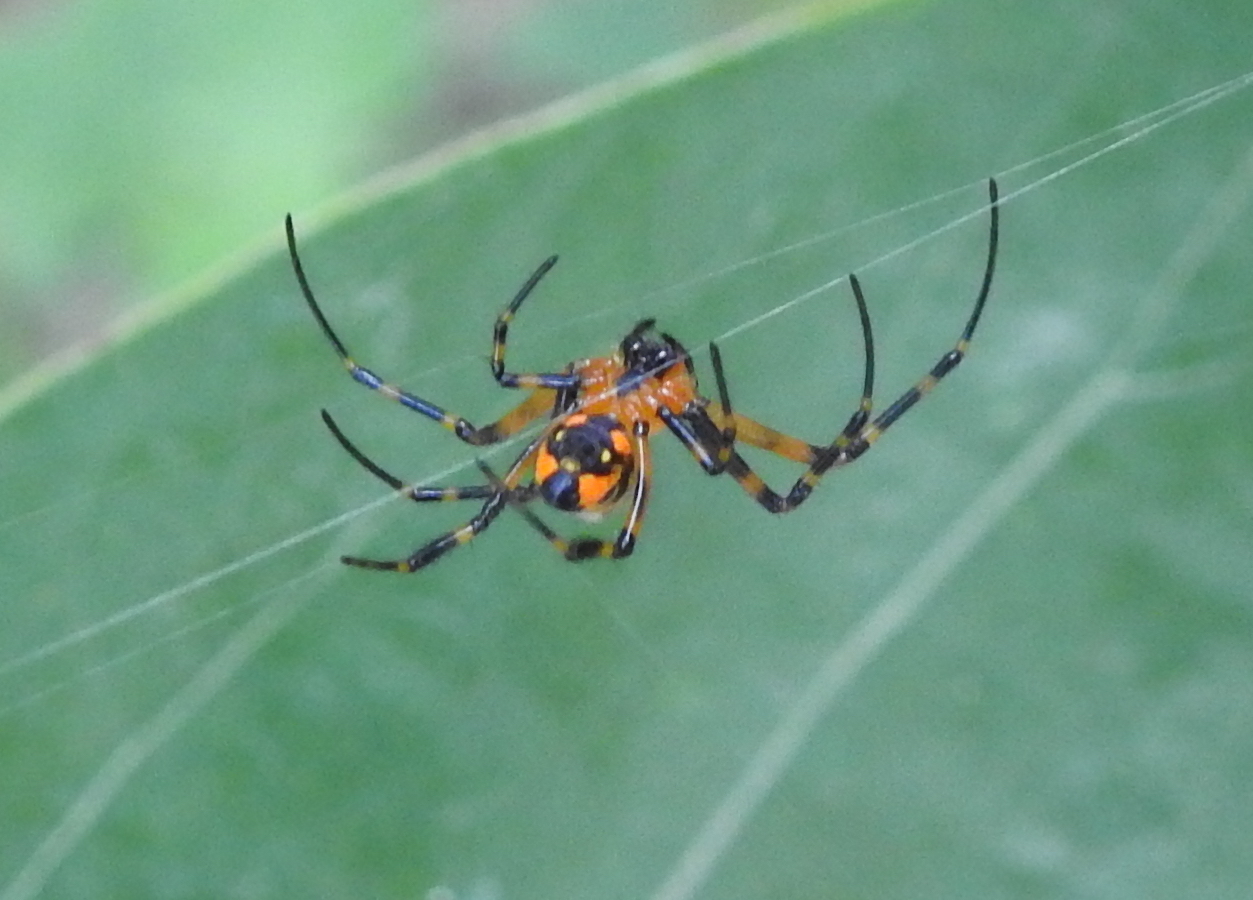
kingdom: Animalia
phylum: Arthropoda
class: Arachnida
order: Araneae
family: Tetragnathidae
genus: Leucauge
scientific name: Leucauge fastigata
